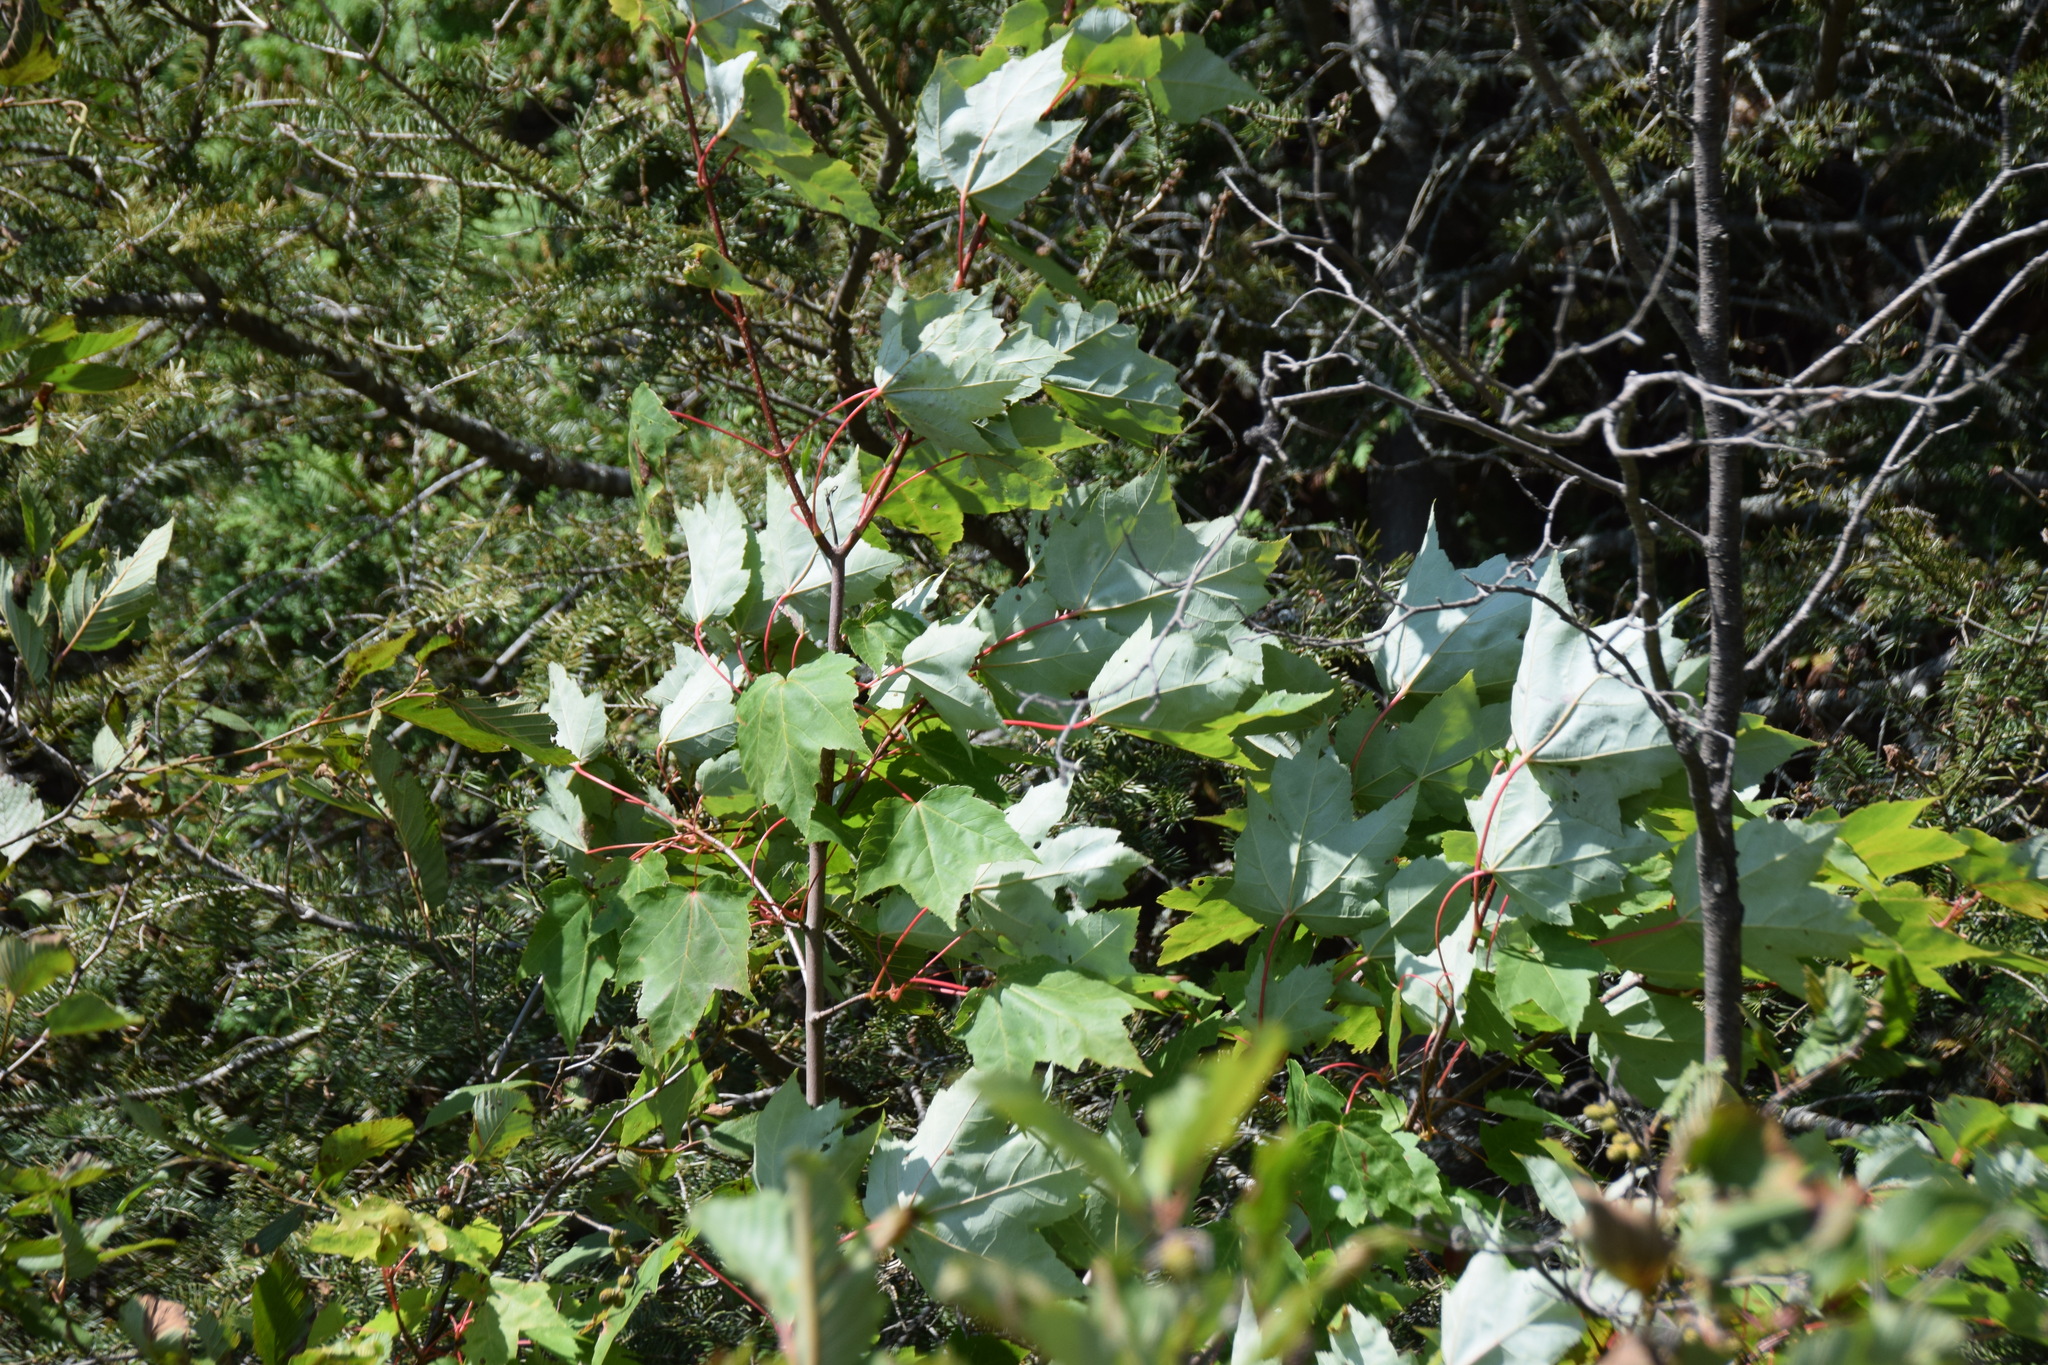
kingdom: Plantae
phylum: Tracheophyta
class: Magnoliopsida
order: Sapindales
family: Sapindaceae
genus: Acer
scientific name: Acer rubrum
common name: Red maple
